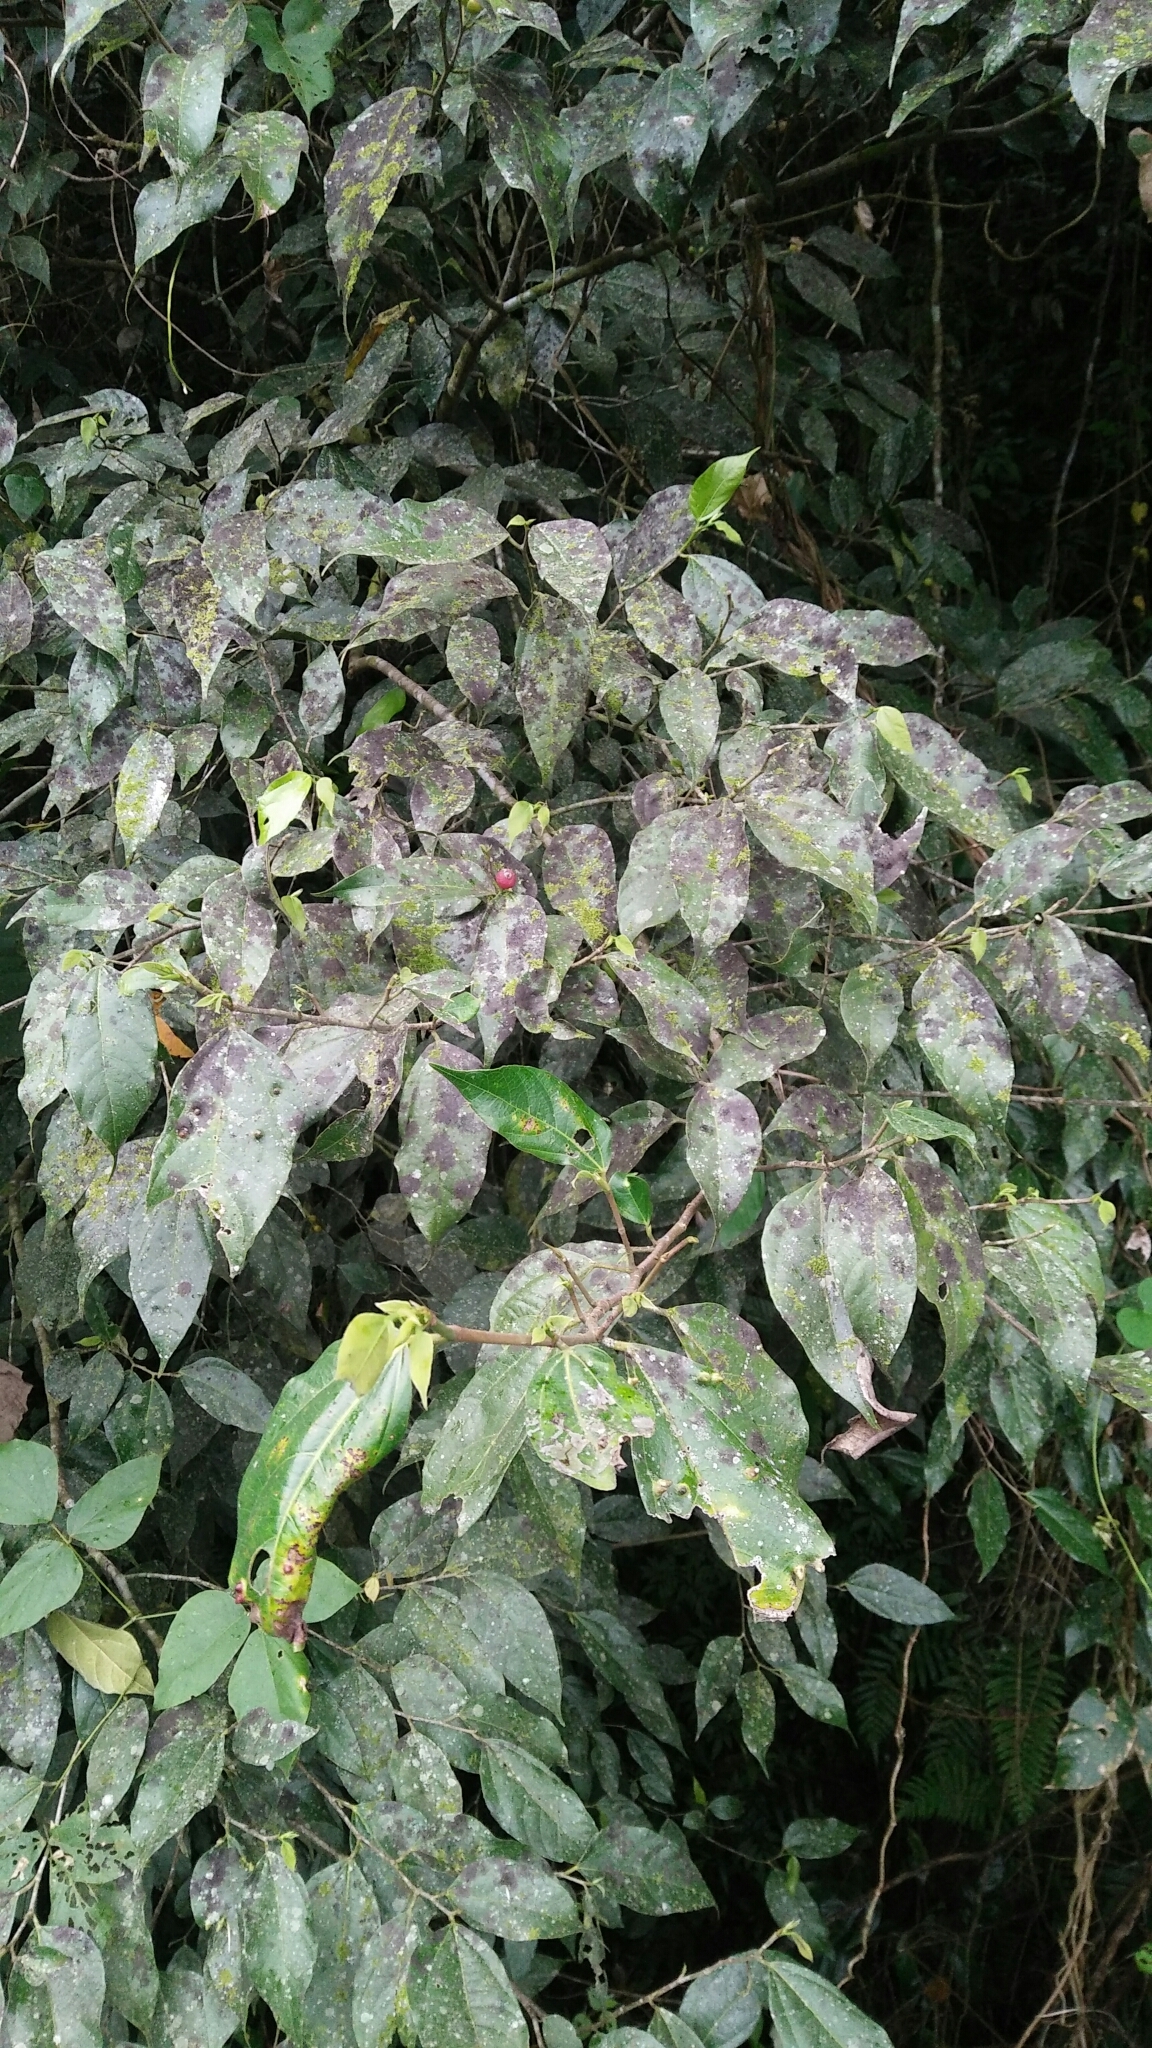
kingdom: Plantae
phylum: Tracheophyta
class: Magnoliopsida
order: Rosales
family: Moraceae
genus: Ficus
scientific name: Ficus ampelos
